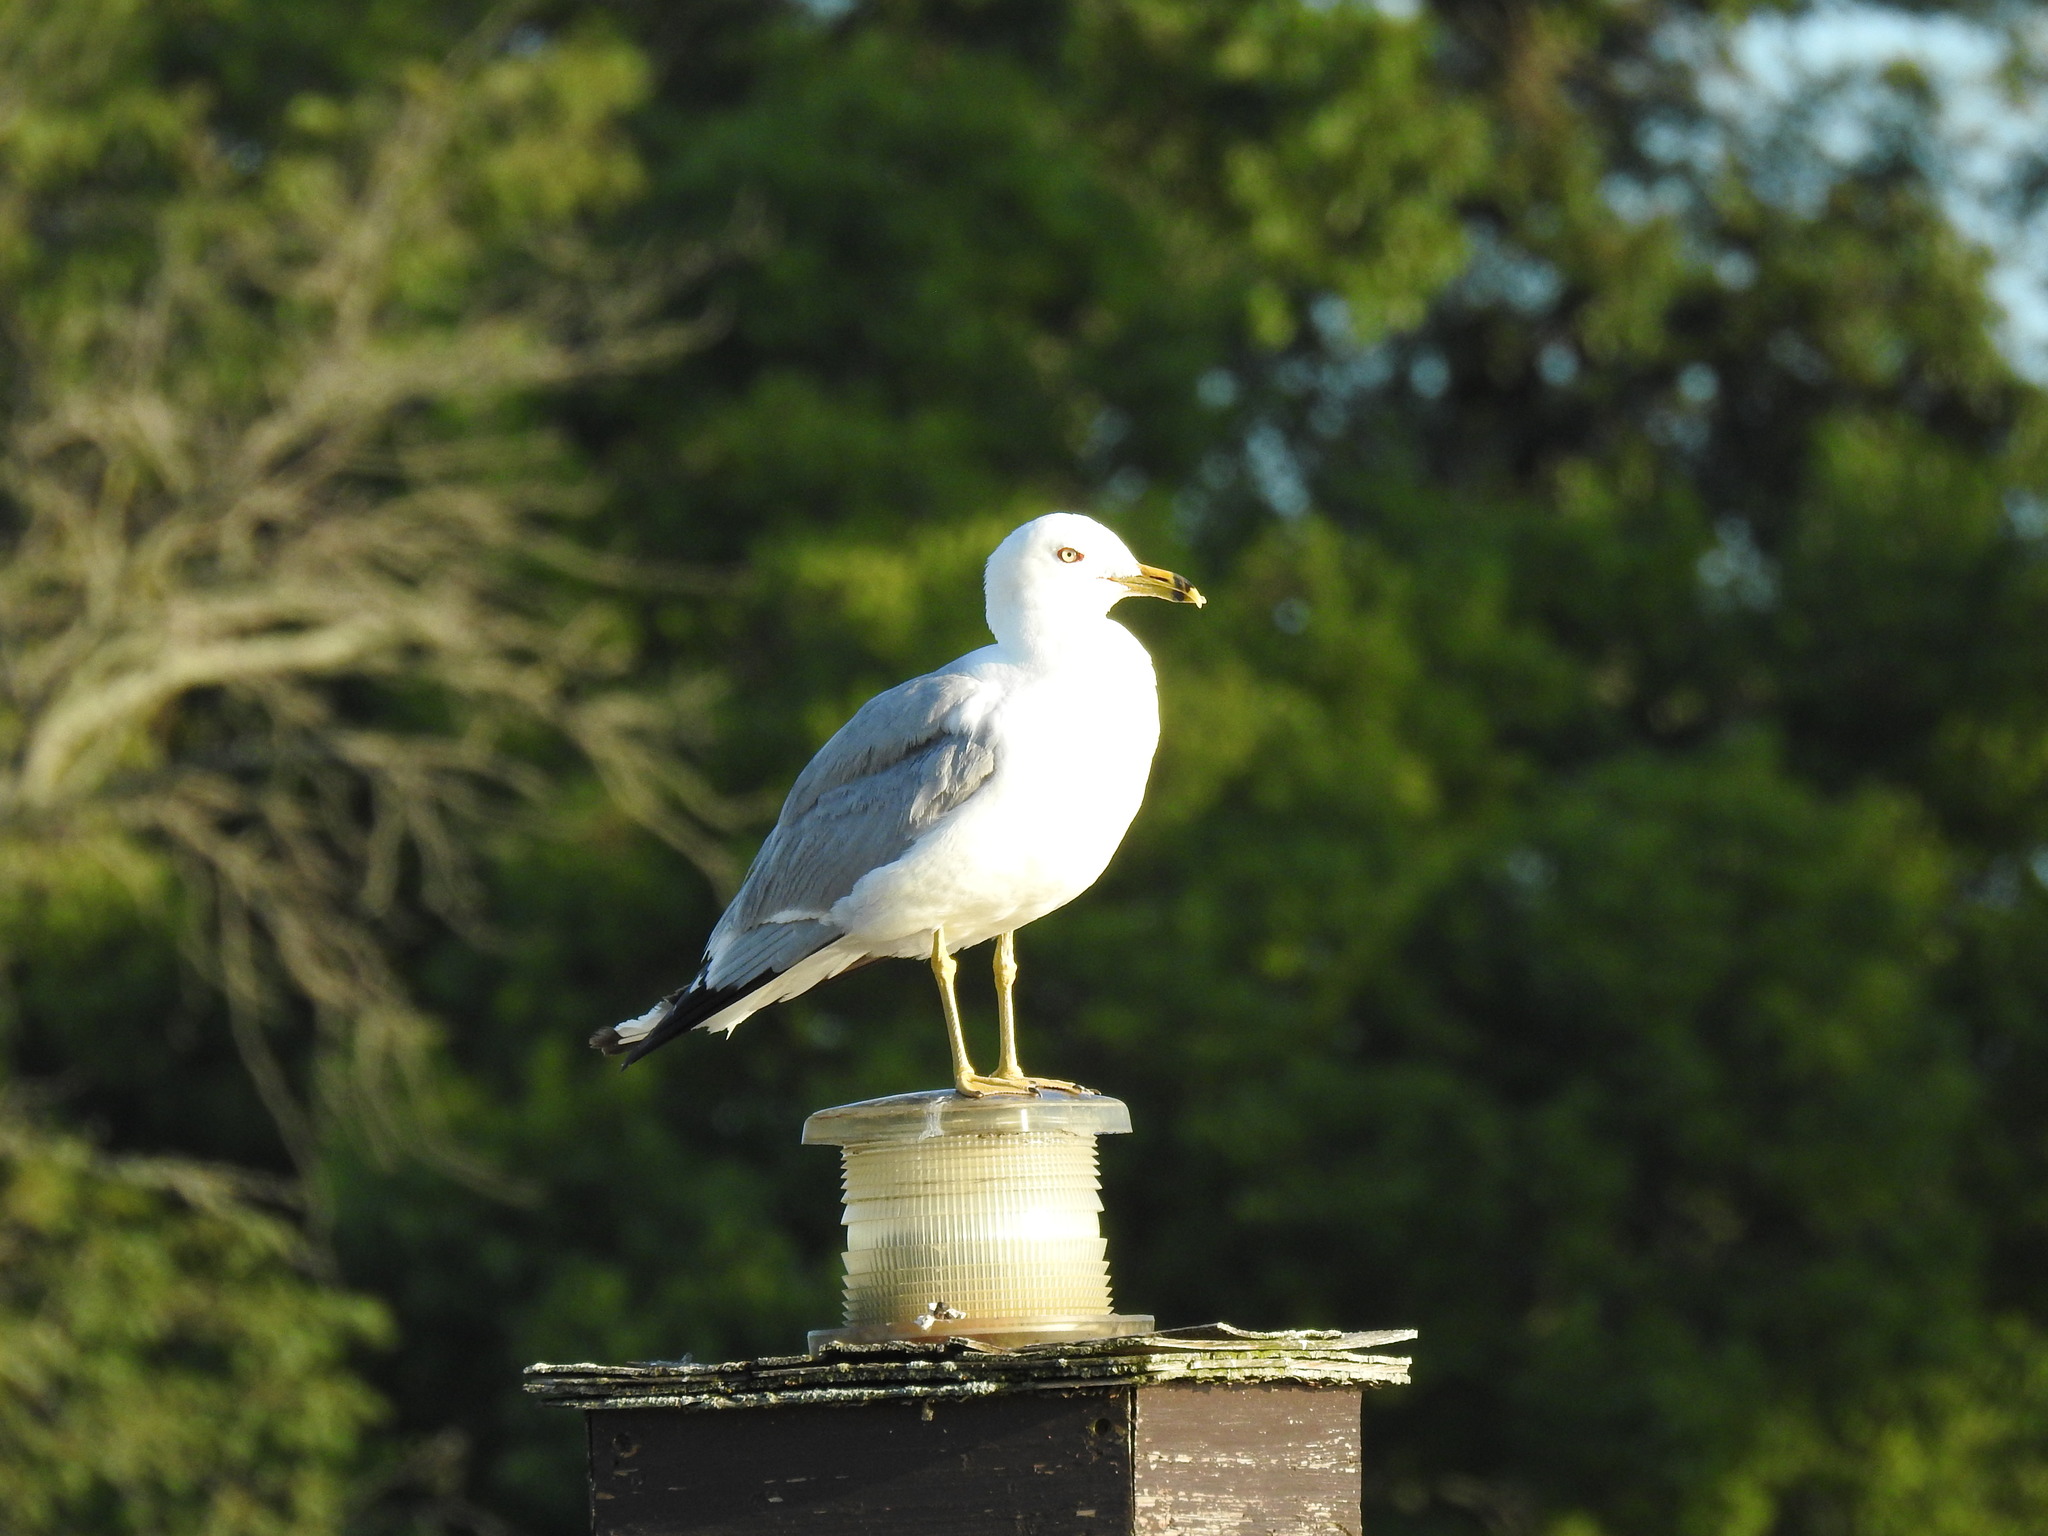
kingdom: Animalia
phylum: Chordata
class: Aves
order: Charadriiformes
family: Laridae
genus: Larus
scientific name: Larus delawarensis
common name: Ring-billed gull
